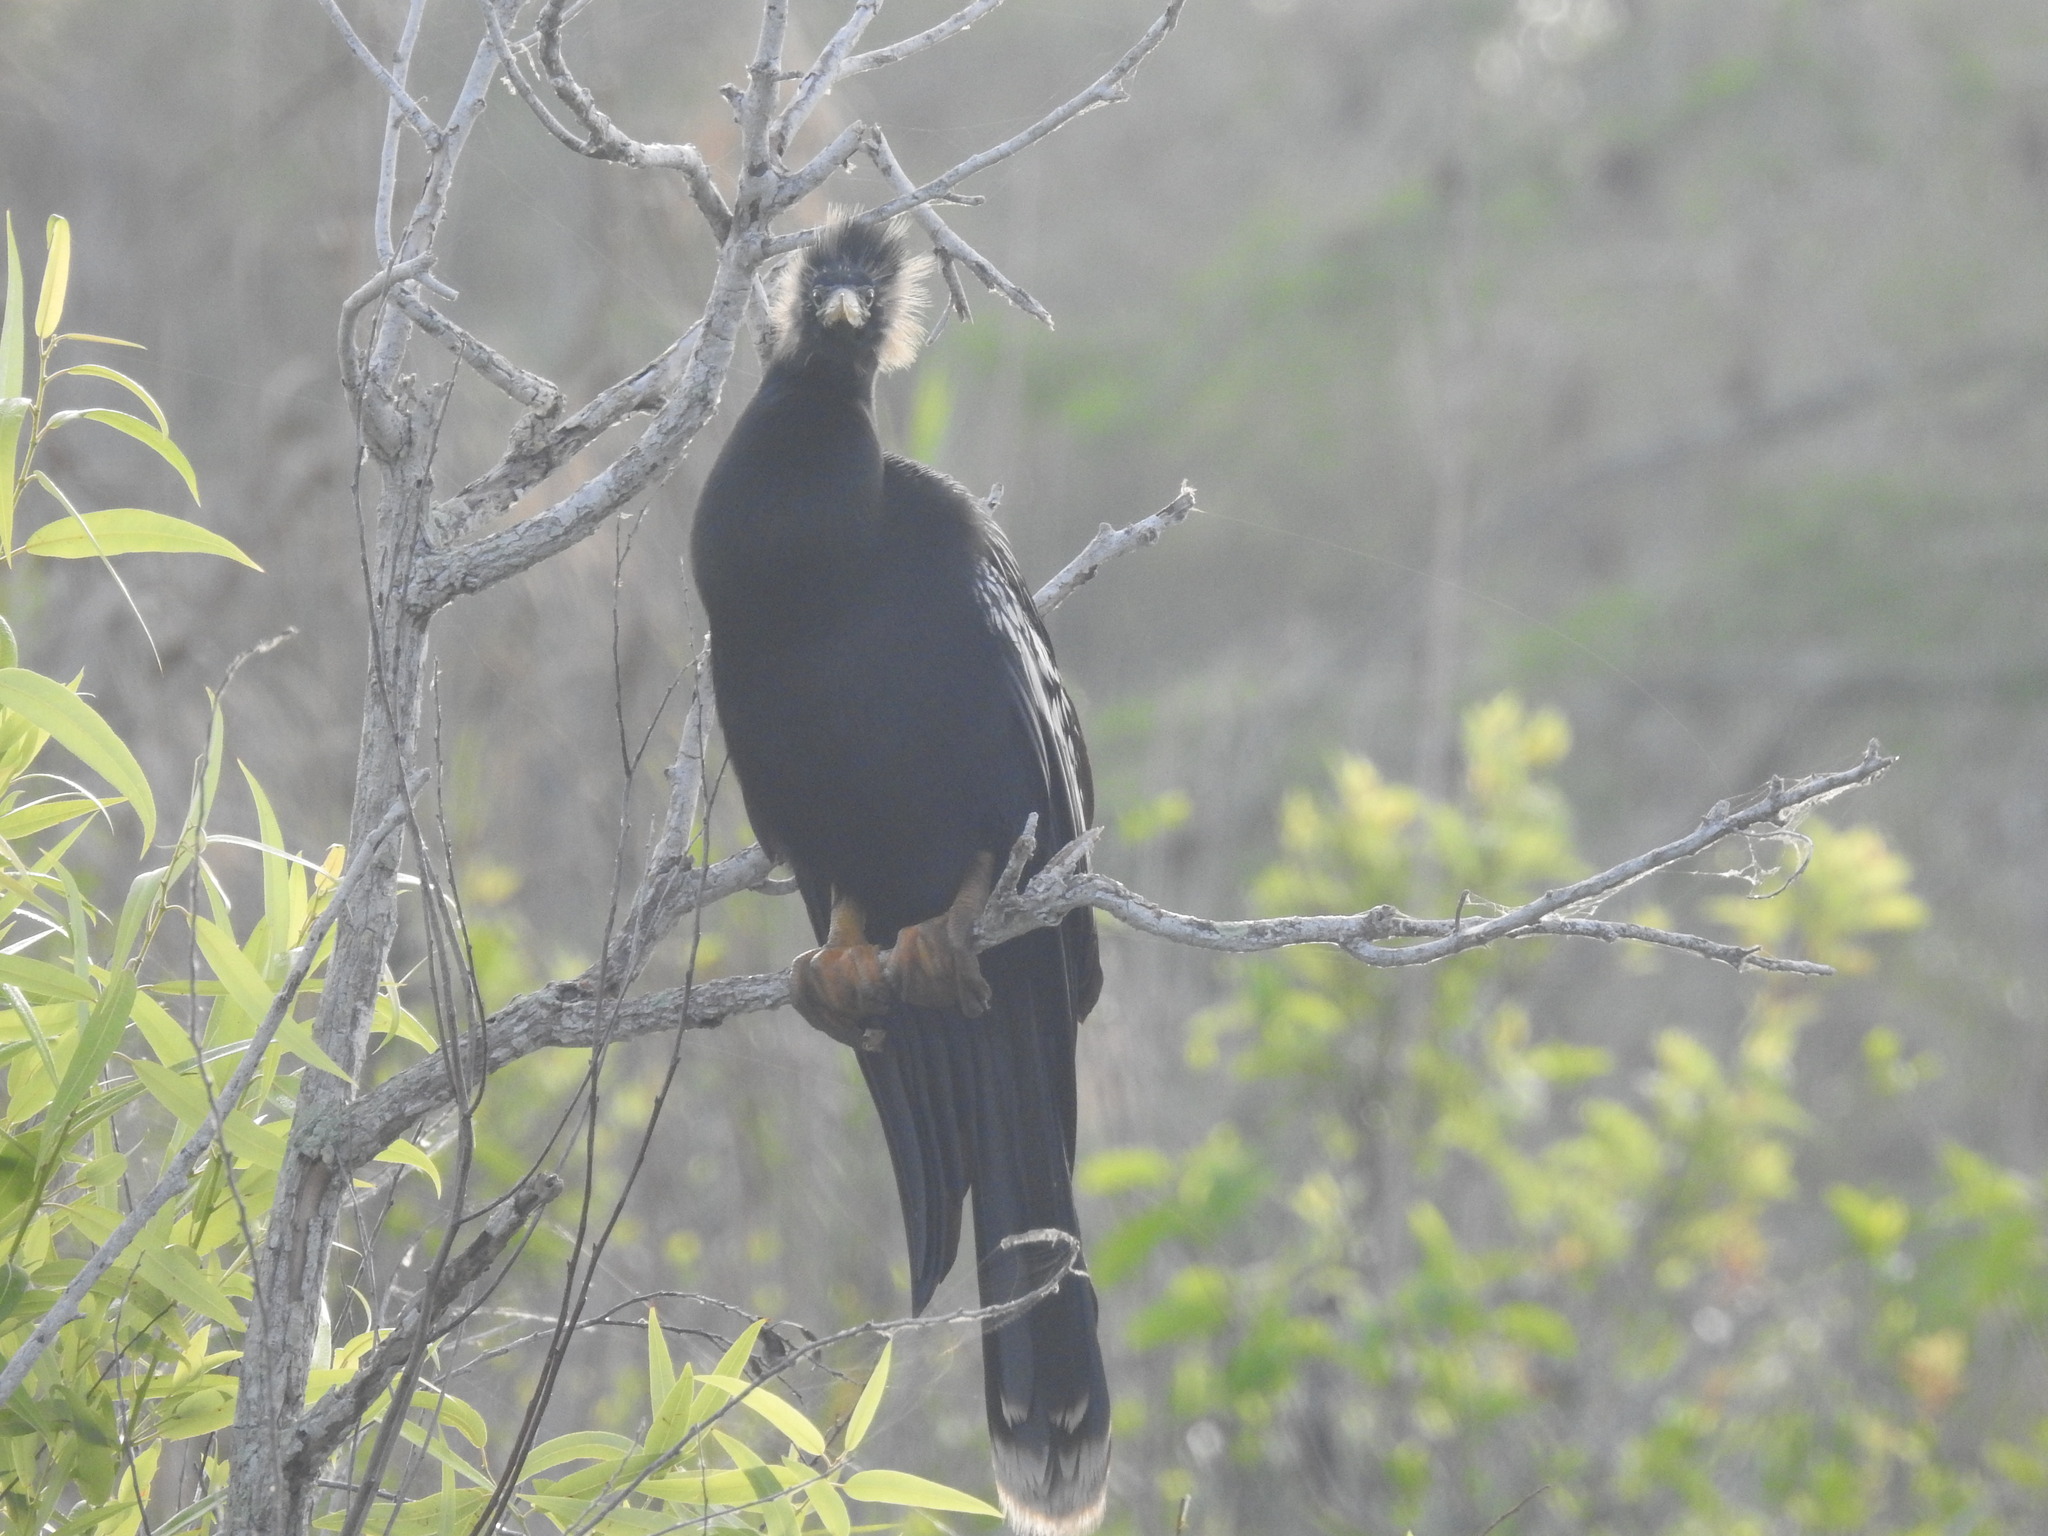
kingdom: Animalia
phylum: Chordata
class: Aves
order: Suliformes
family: Anhingidae
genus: Anhinga
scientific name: Anhinga anhinga
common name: Anhinga
